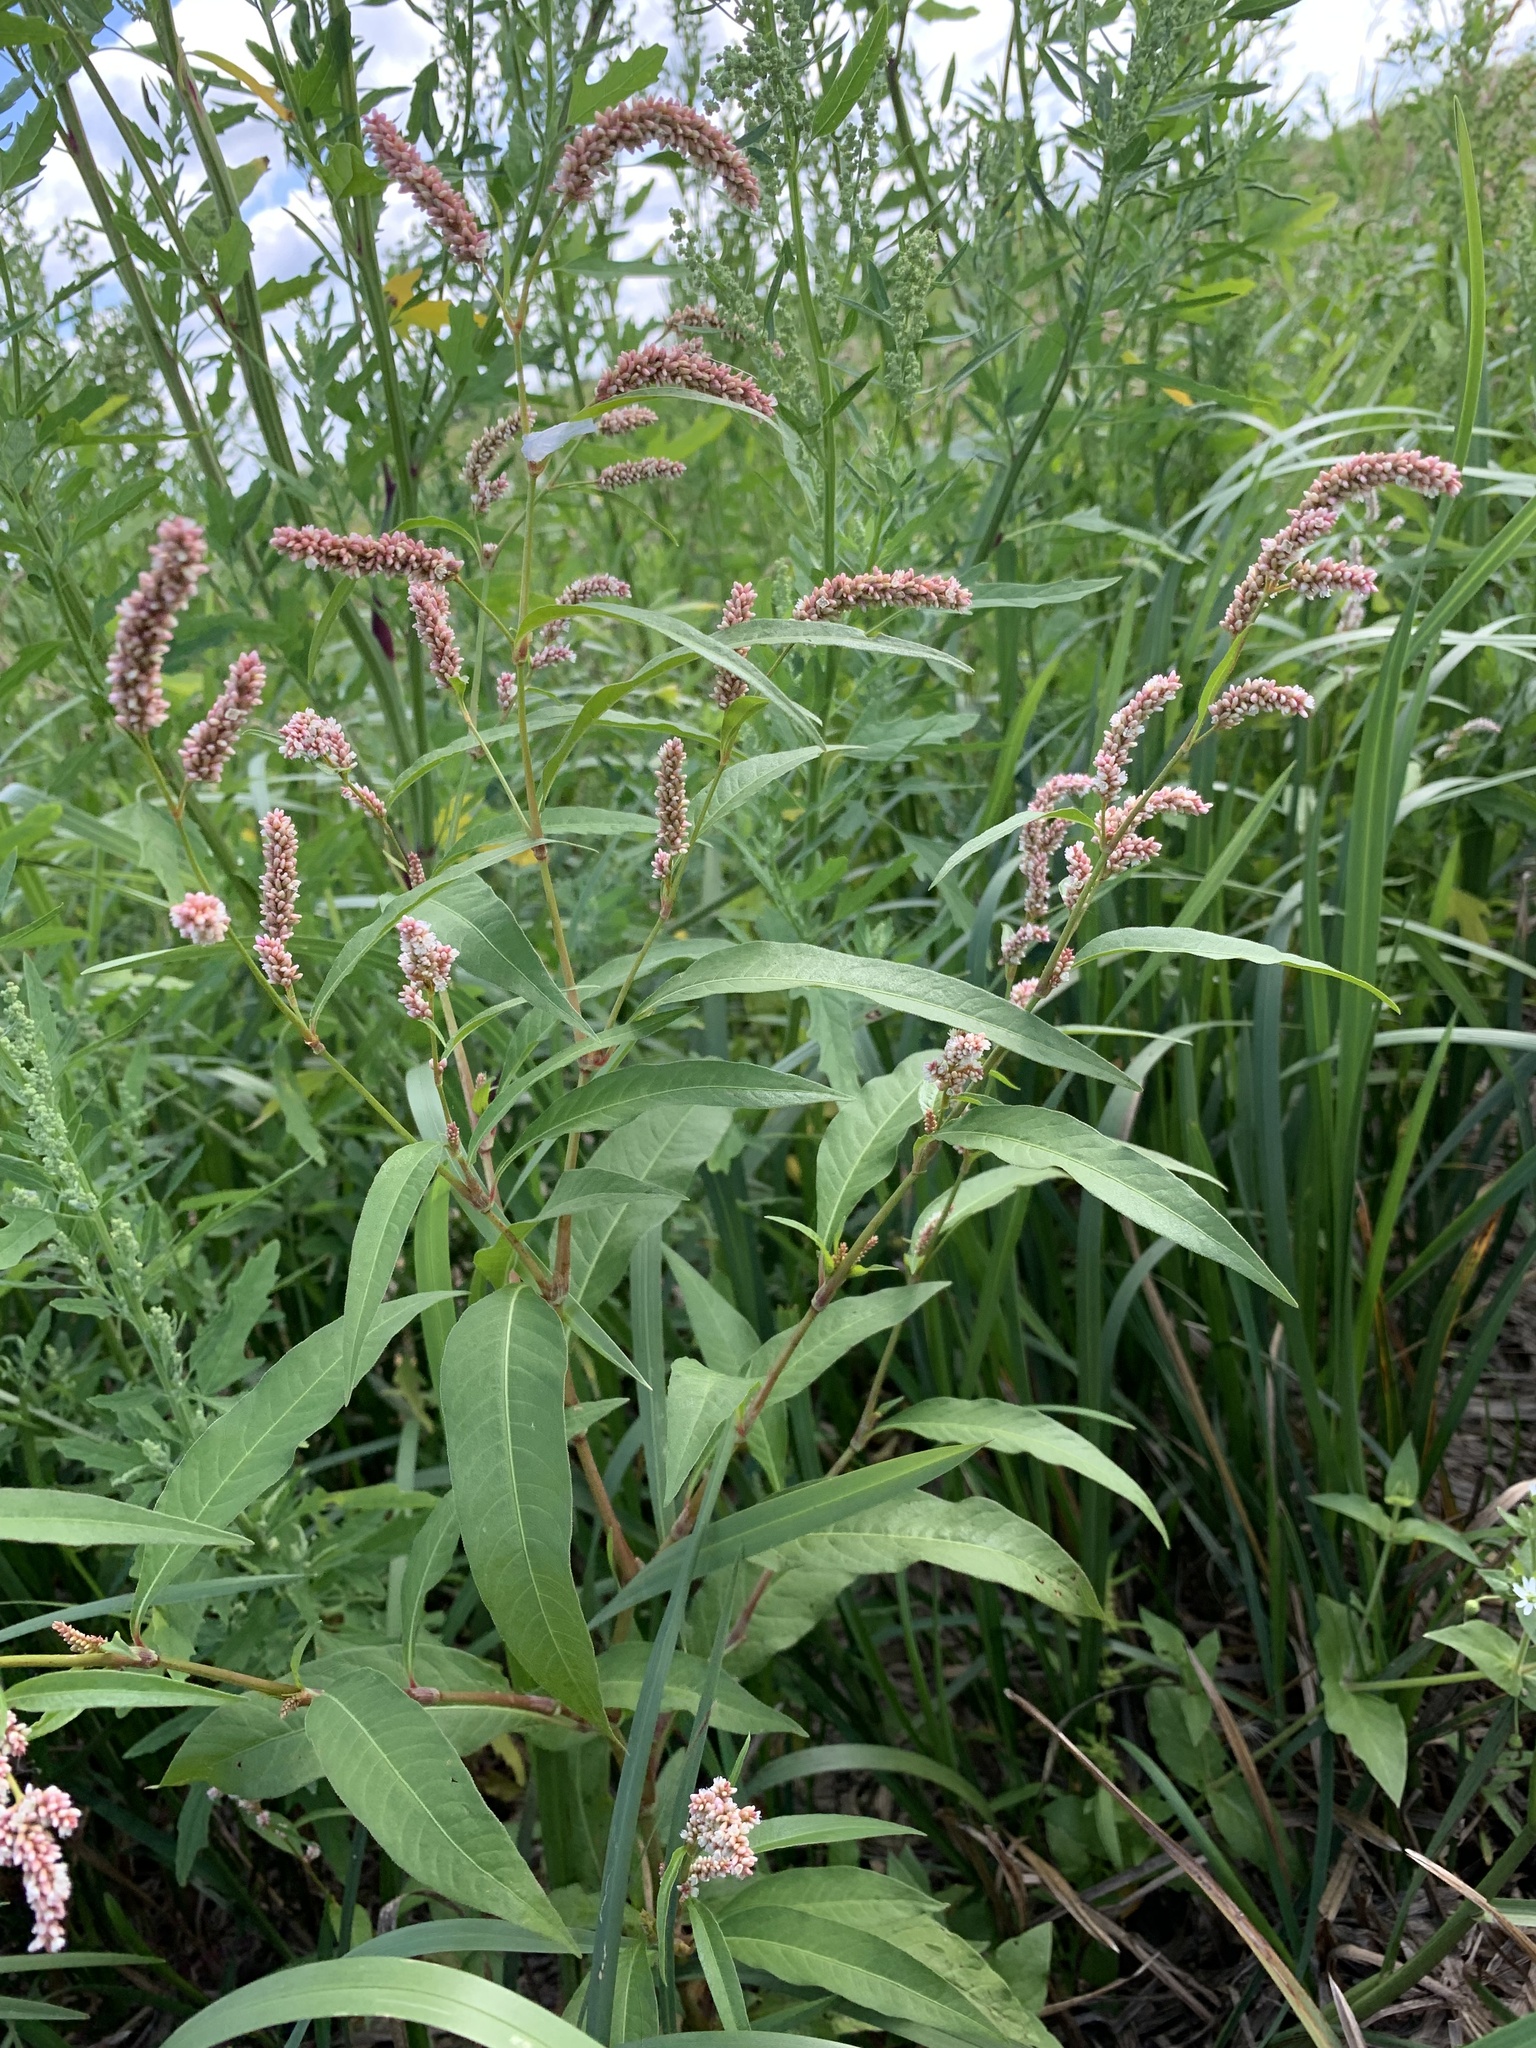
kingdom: Plantae
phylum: Tracheophyta
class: Magnoliopsida
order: Caryophyllales
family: Polygonaceae
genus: Persicaria
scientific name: Persicaria lapathifolia
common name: Curlytop knotweed
